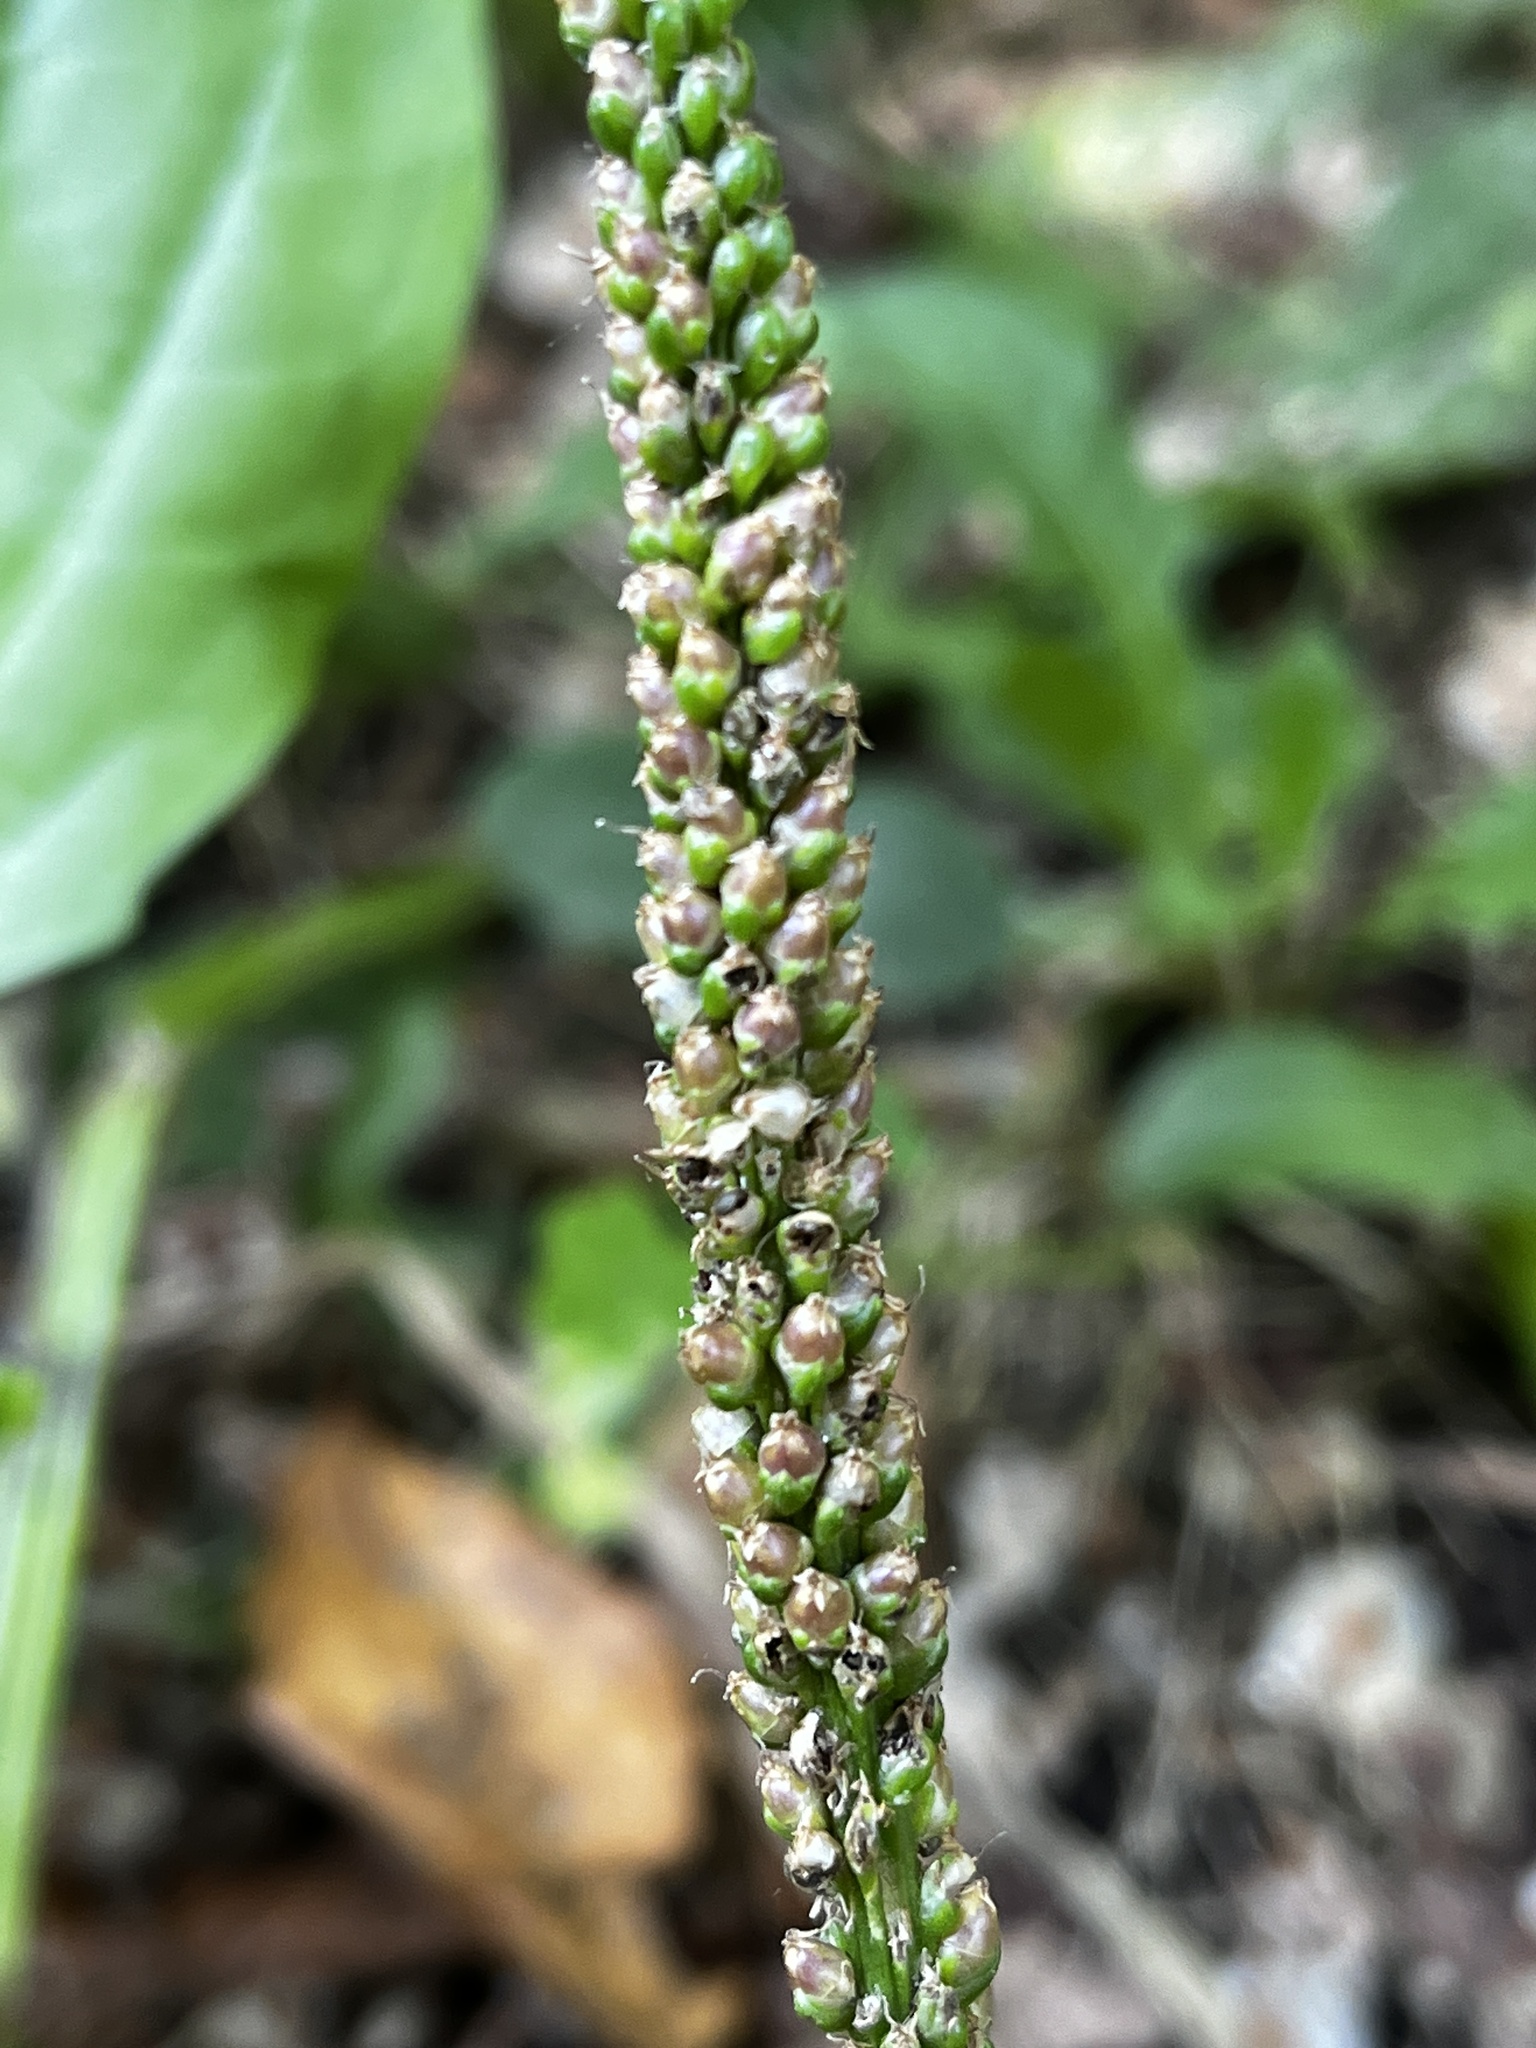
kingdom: Plantae
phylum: Tracheophyta
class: Magnoliopsida
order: Lamiales
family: Plantaginaceae
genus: Plantago
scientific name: Plantago major
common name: Common plantain
